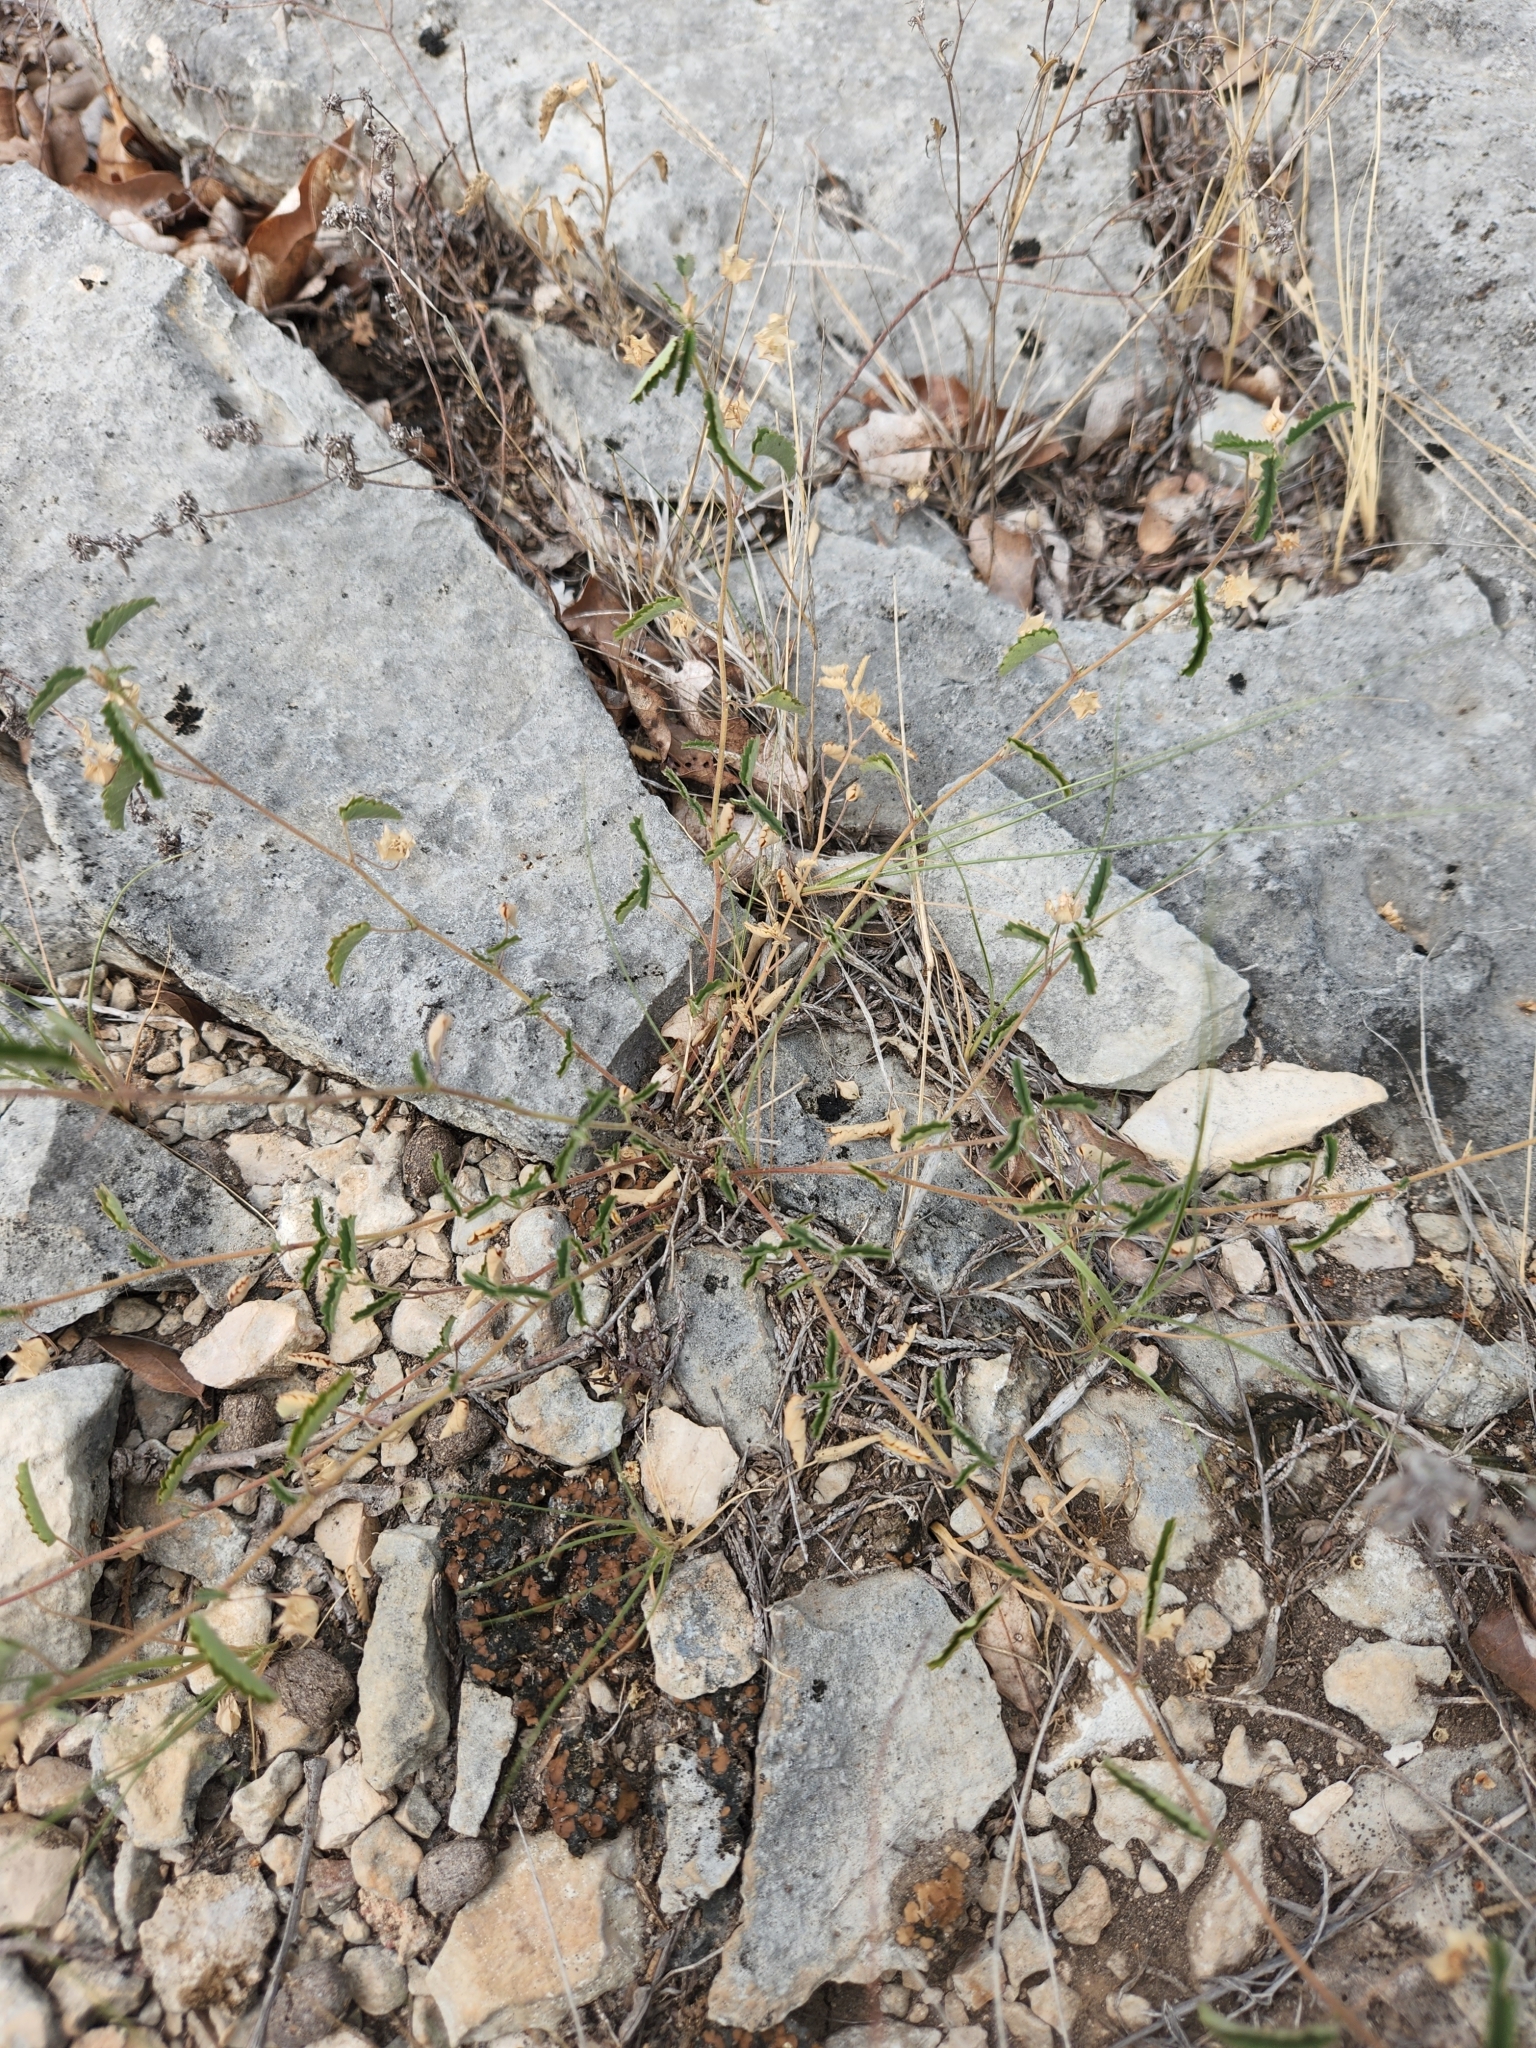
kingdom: Plantae
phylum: Tracheophyta
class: Magnoliopsida
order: Malvales
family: Malvaceae
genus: Sida
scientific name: Sida abutilifolia
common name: Spreading fanpetals
